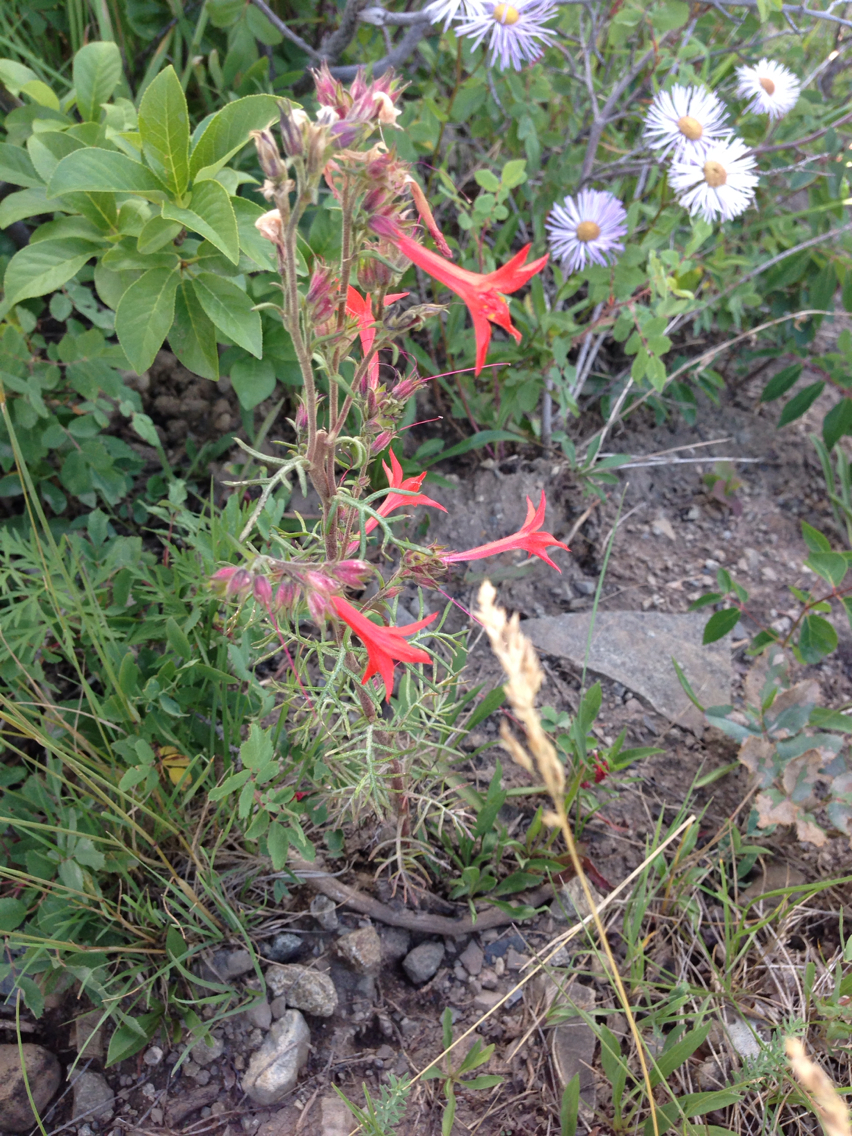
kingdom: Plantae
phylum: Tracheophyta
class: Magnoliopsida
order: Ericales
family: Polemoniaceae
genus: Ipomopsis
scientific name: Ipomopsis aggregata
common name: Scarlet gilia
